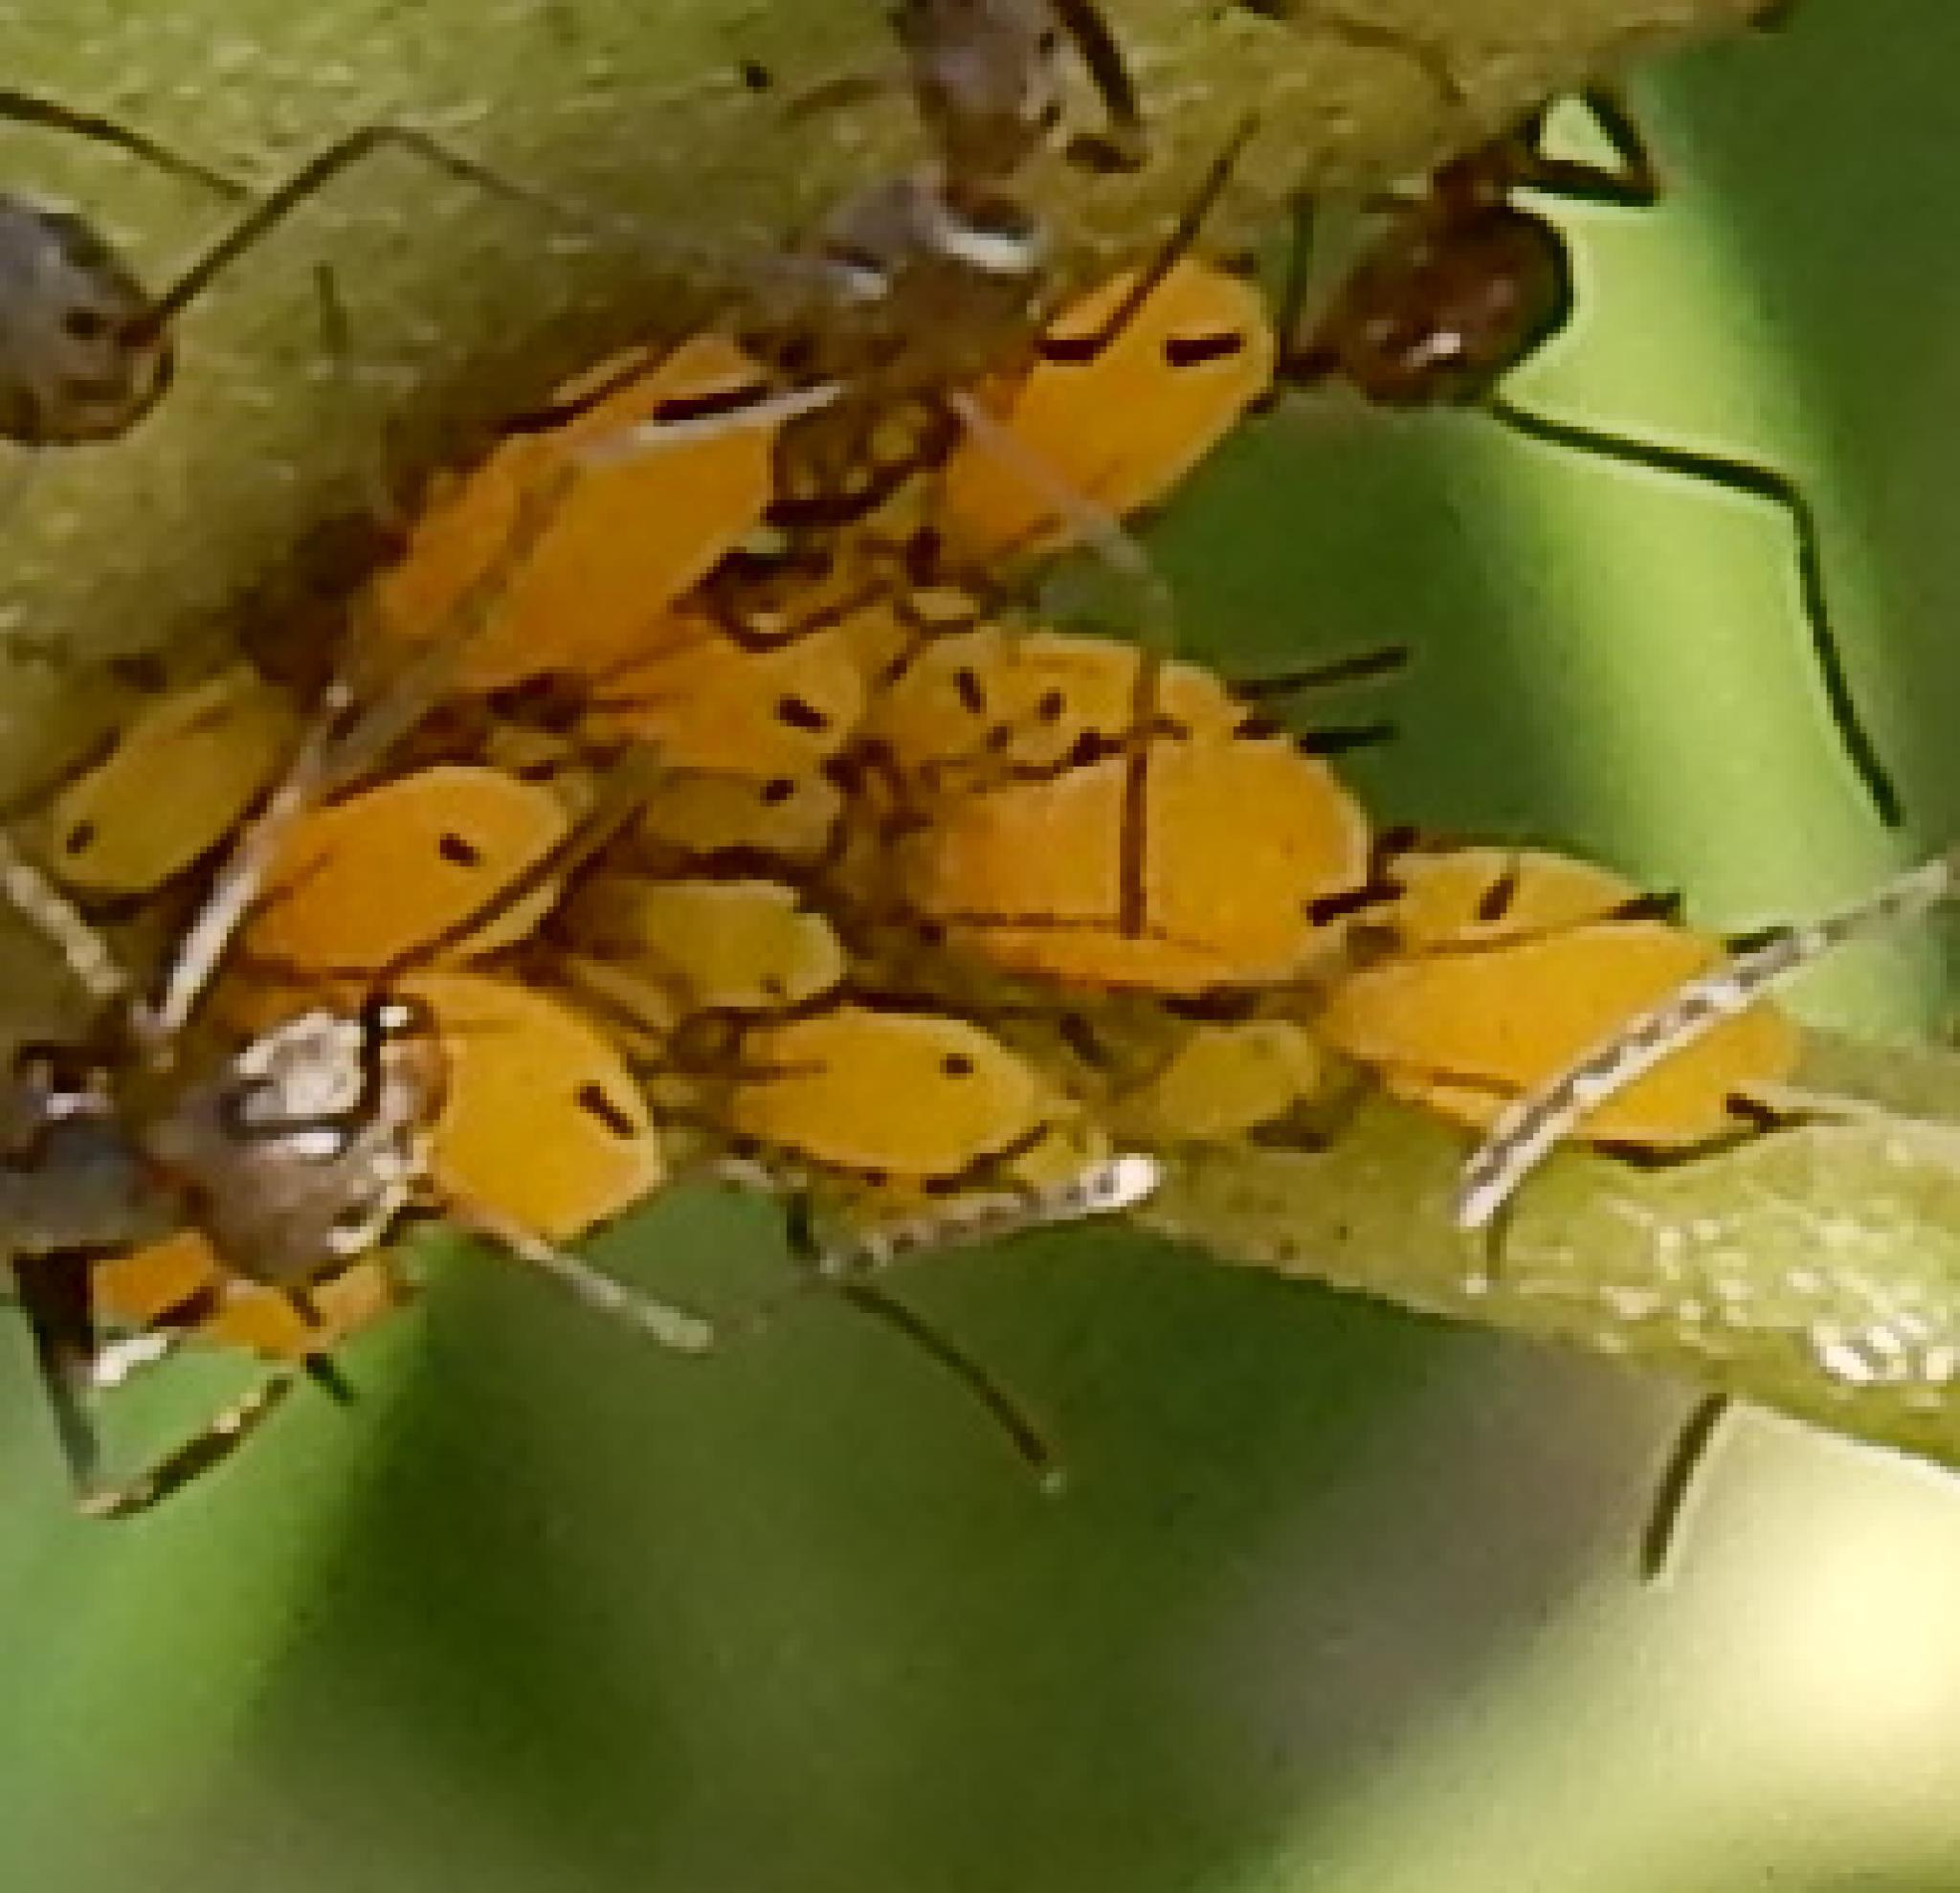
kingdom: Animalia
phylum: Arthropoda
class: Insecta
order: Hemiptera
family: Aphididae
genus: Aphis
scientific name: Aphis nerii
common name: Oleander aphid
